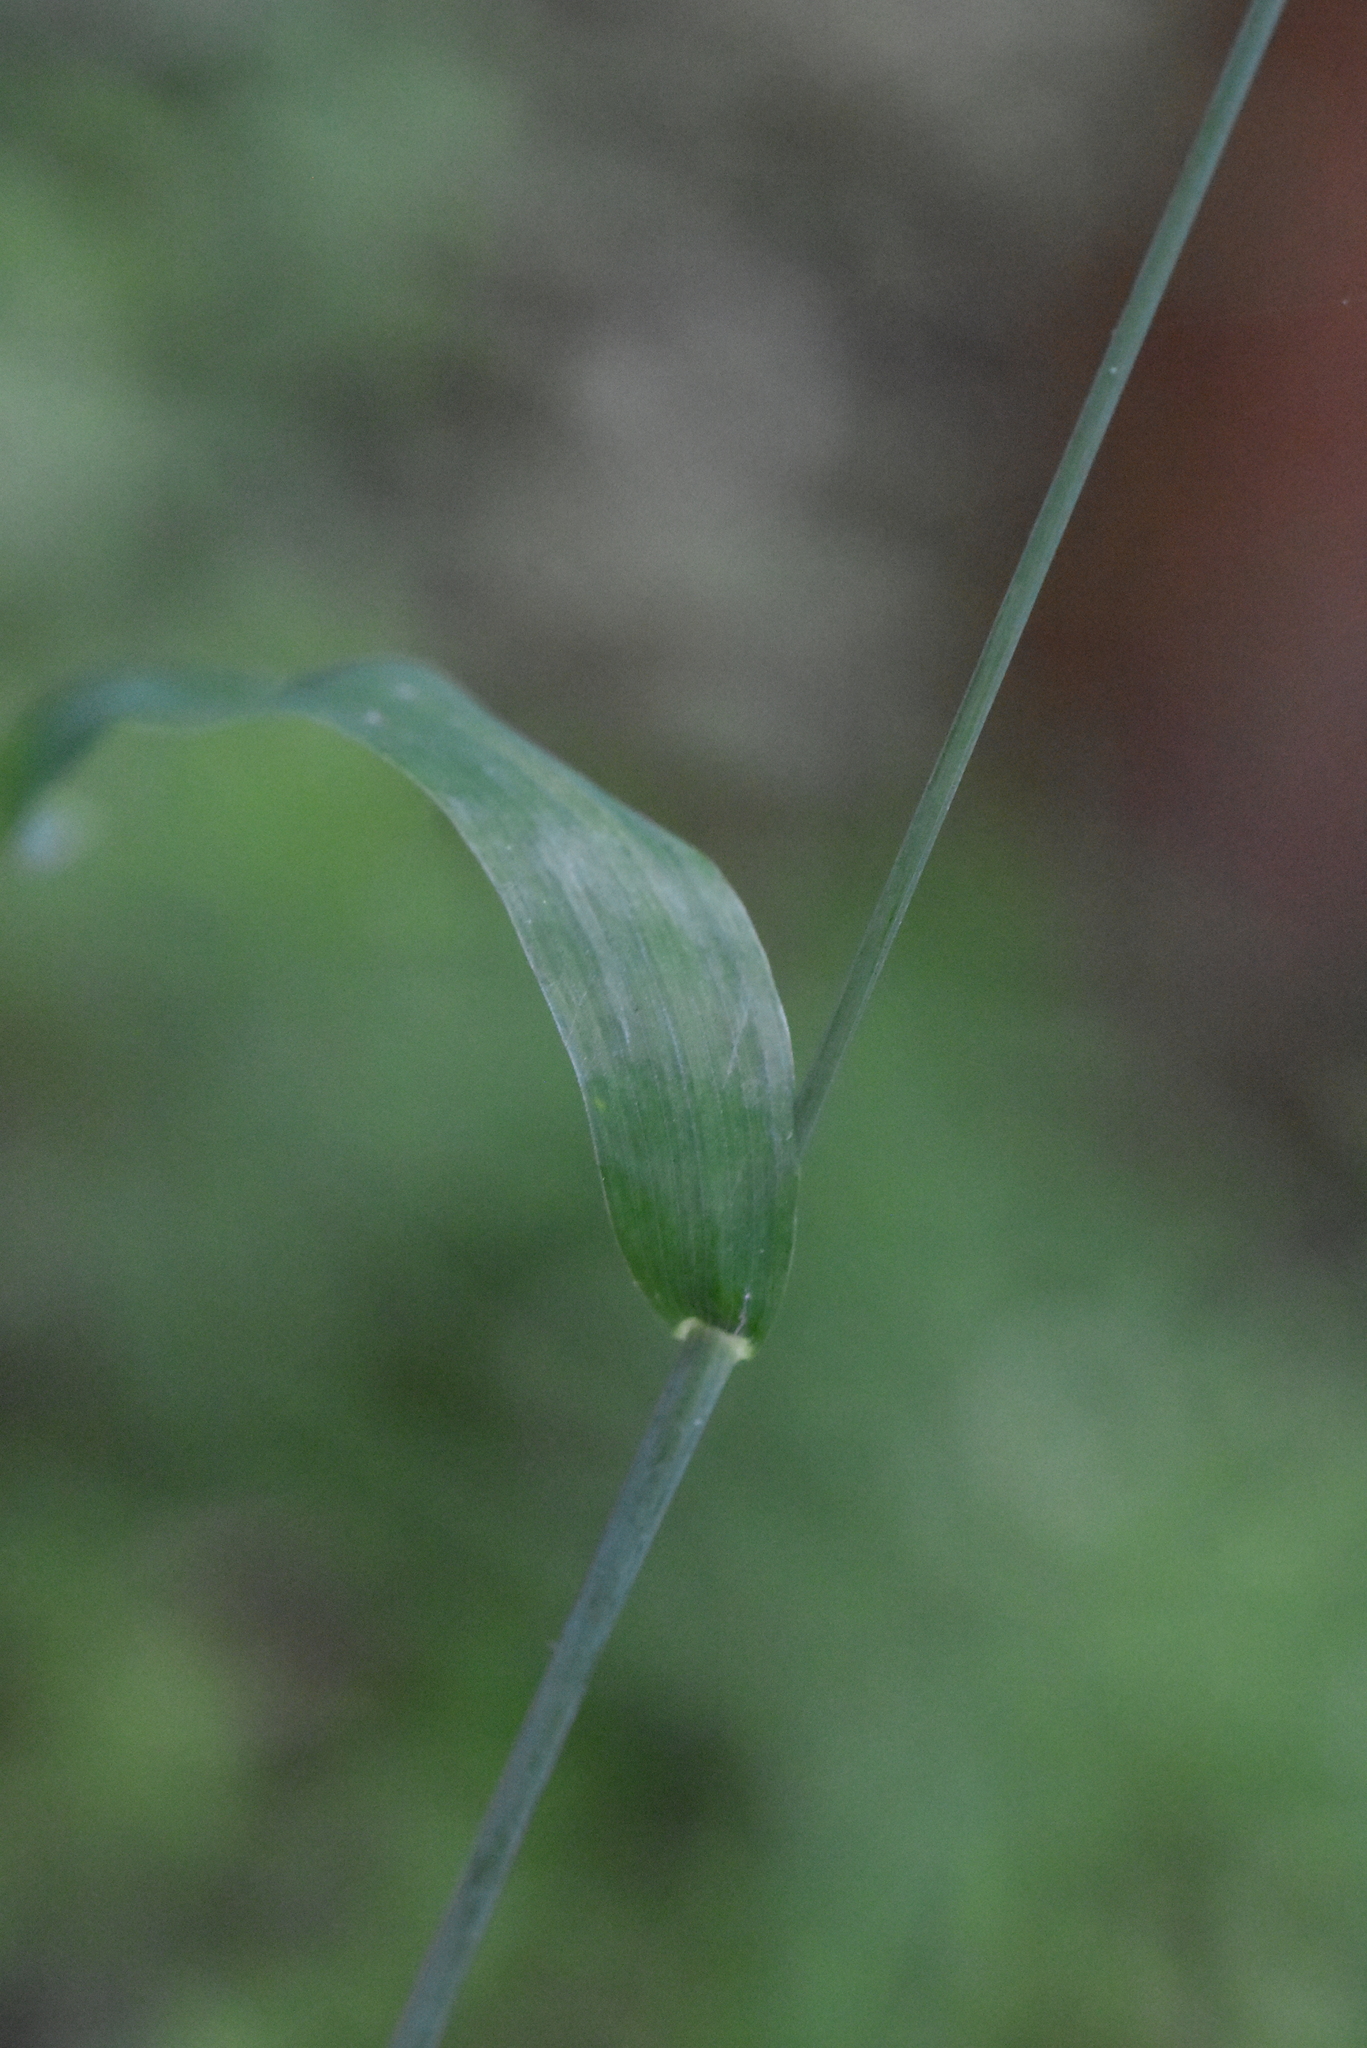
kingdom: Plantae
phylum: Tracheophyta
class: Liliopsida
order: Poales
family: Poaceae
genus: Milium
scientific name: Milium effusum
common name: Wood millet
